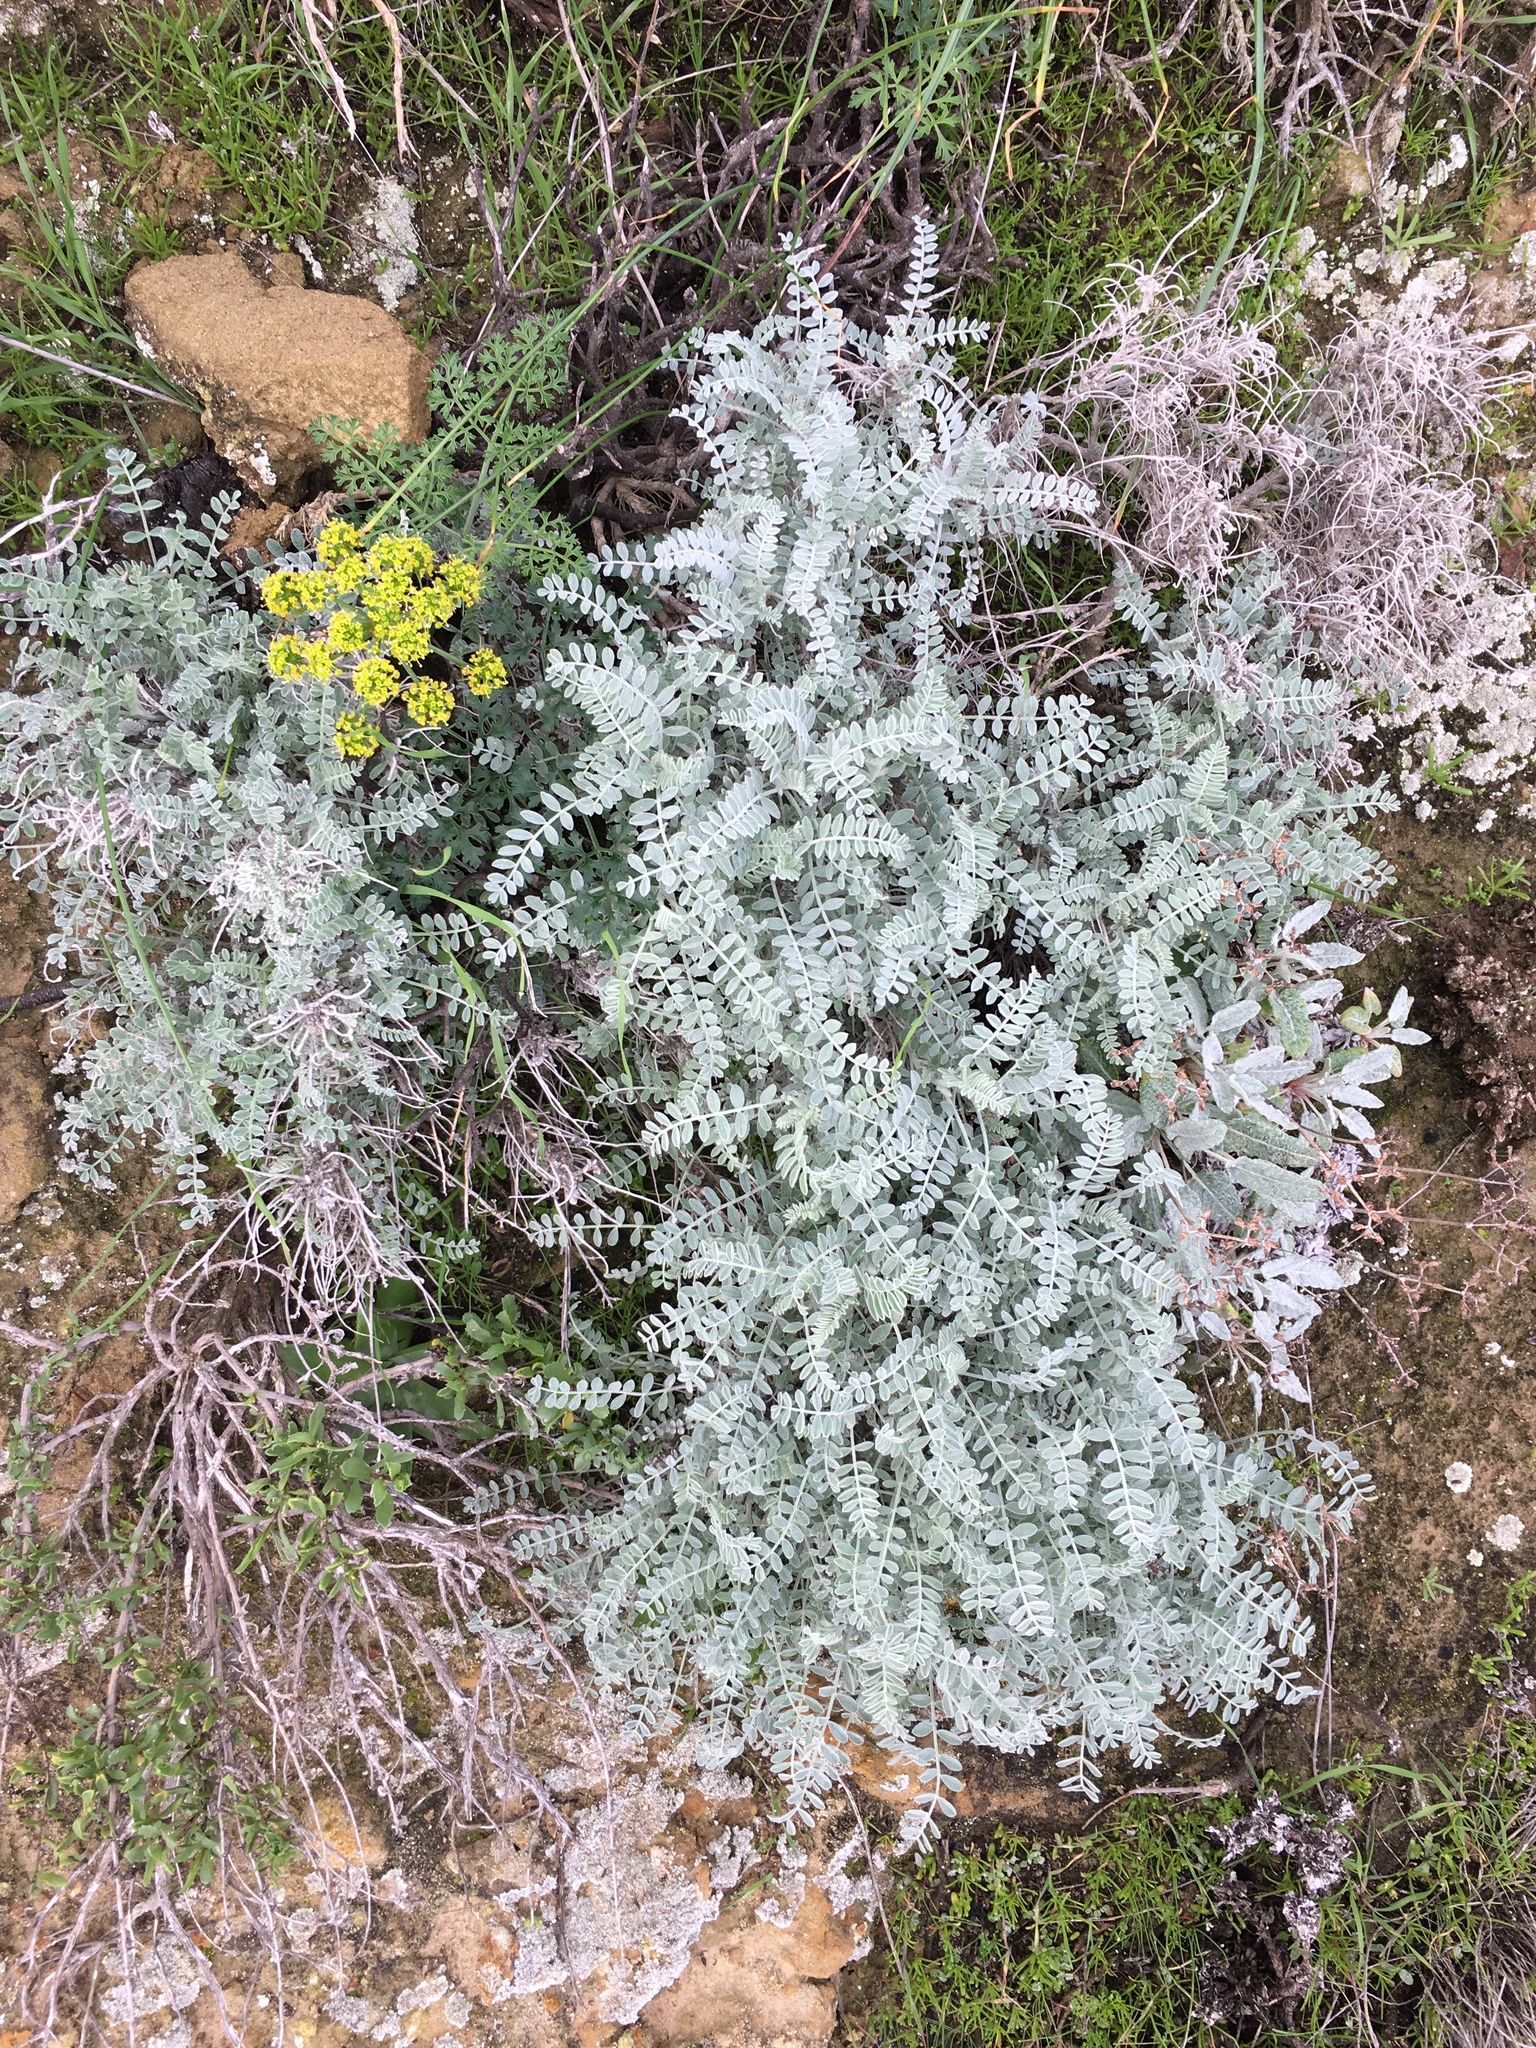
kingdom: Plantae
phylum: Tracheophyta
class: Magnoliopsida
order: Apiales
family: Apiaceae
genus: Lomatium
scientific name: Lomatium insulare
